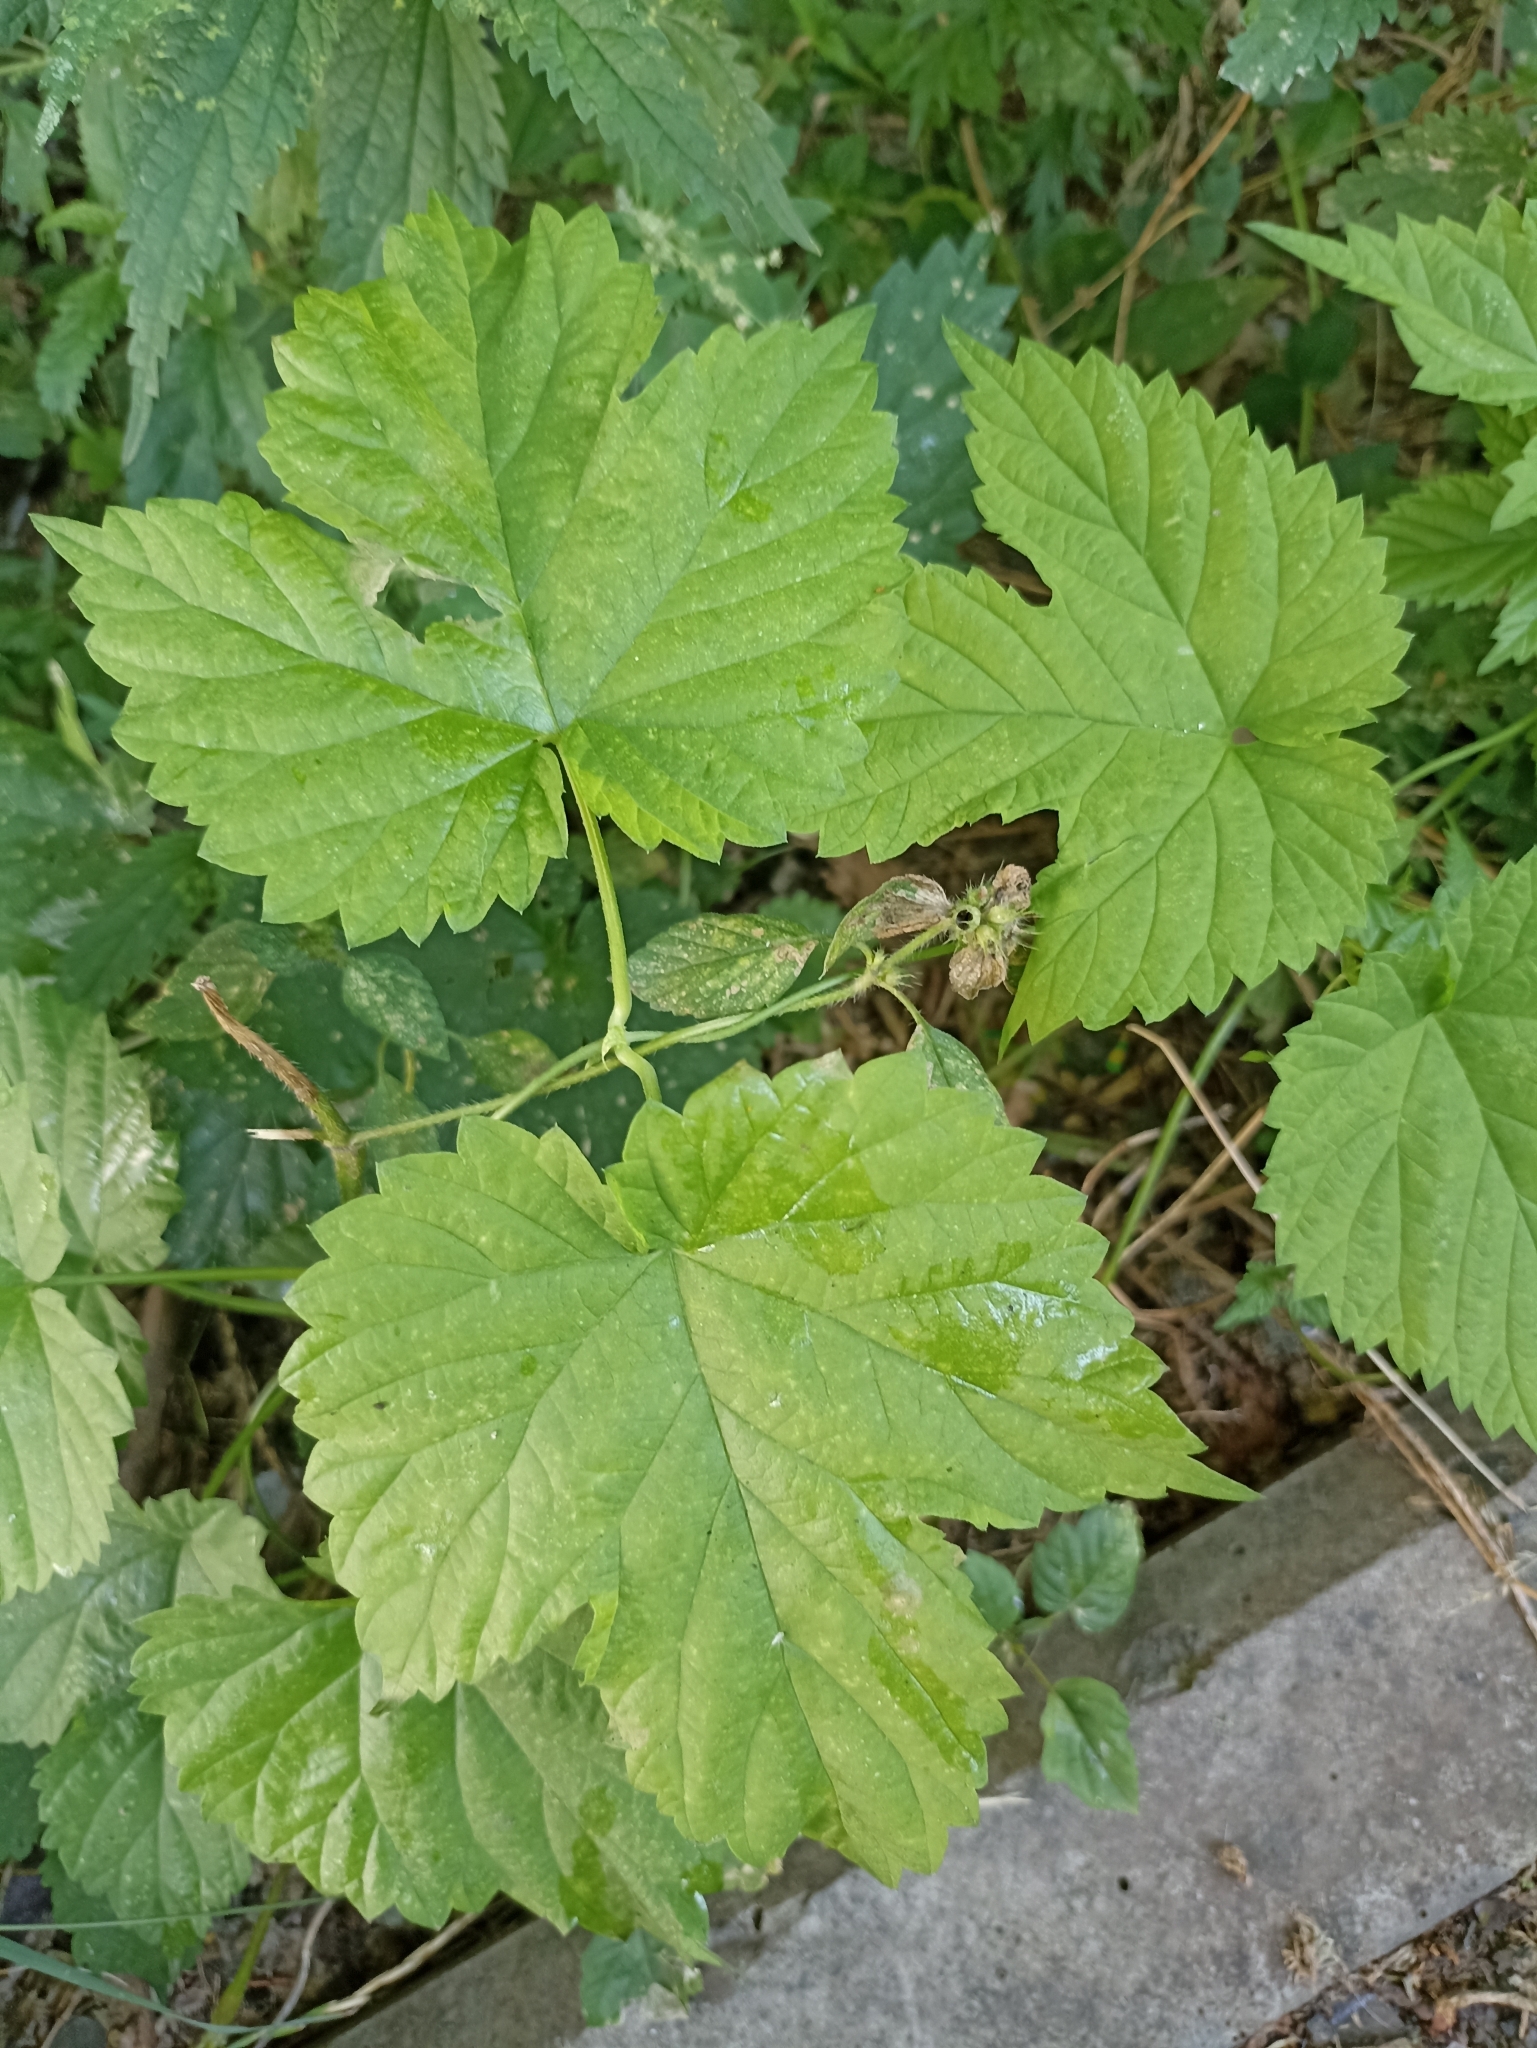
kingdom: Plantae
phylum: Tracheophyta
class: Magnoliopsida
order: Rosales
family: Cannabaceae
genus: Humulus
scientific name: Humulus lupulus
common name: Hop
